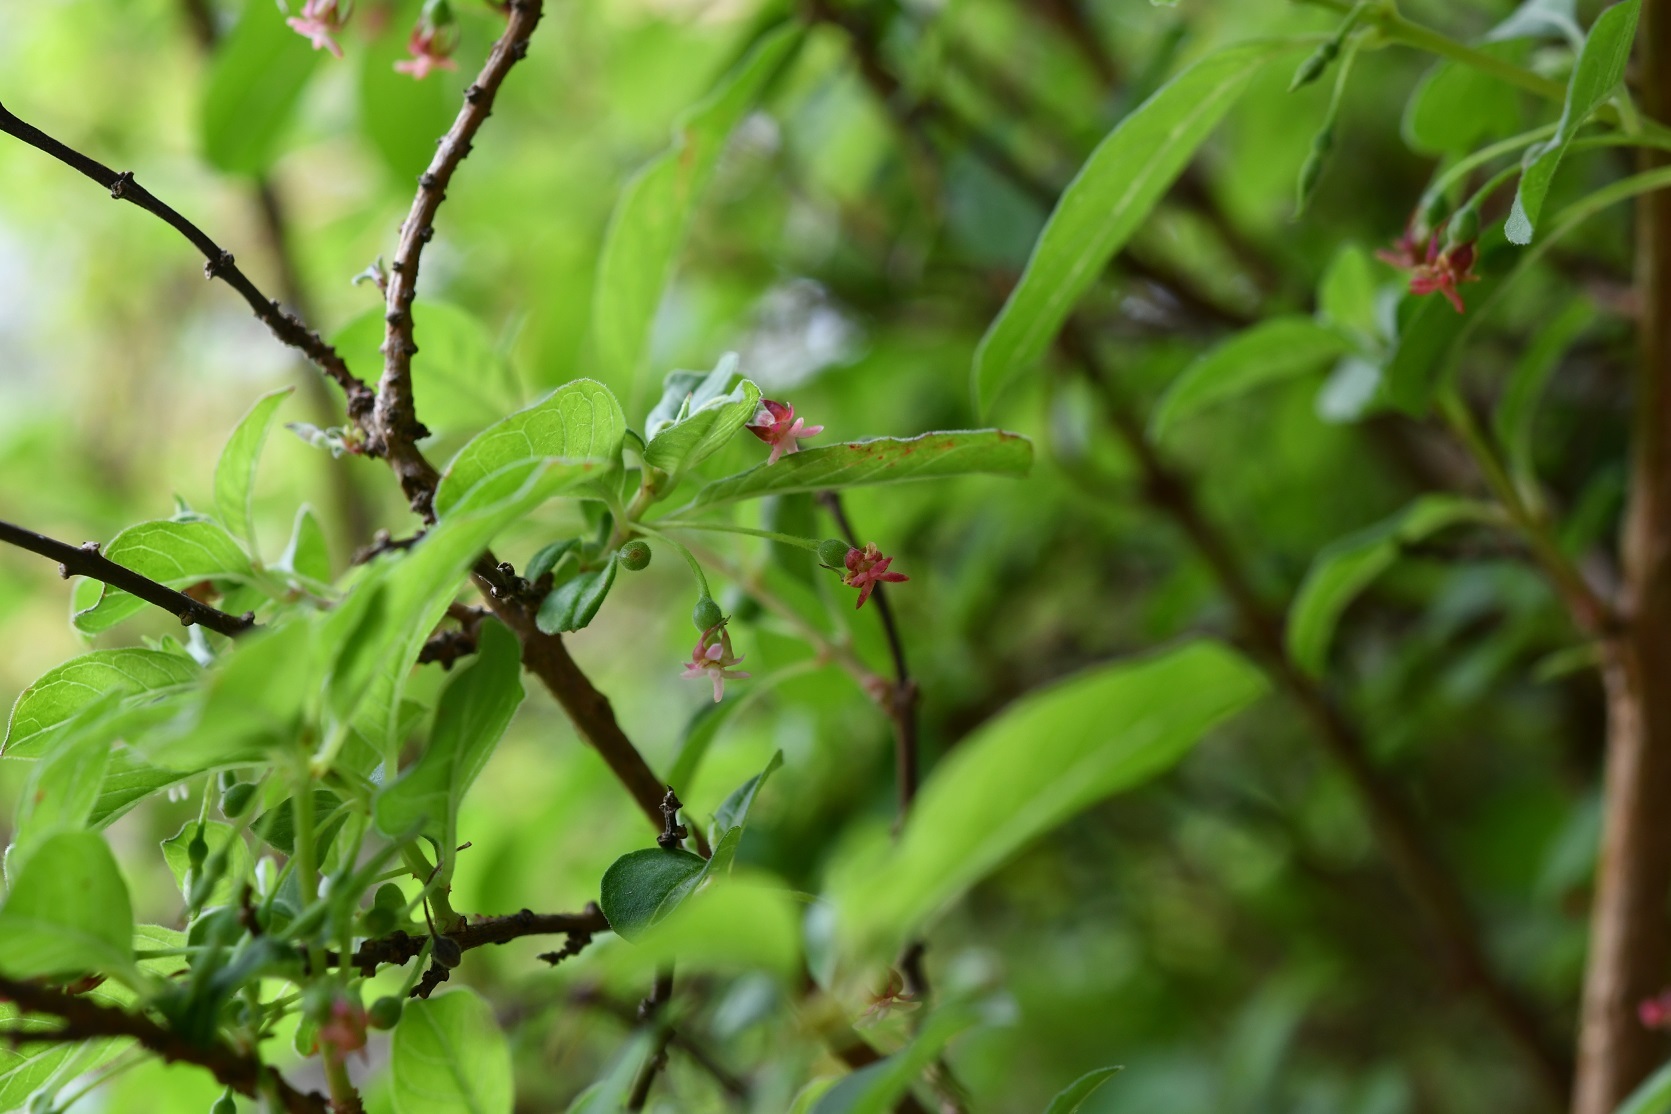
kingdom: Plantae
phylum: Tracheophyta
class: Magnoliopsida
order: Myrtales
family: Onagraceae
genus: Fuchsia
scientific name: Fuchsia encliandra
